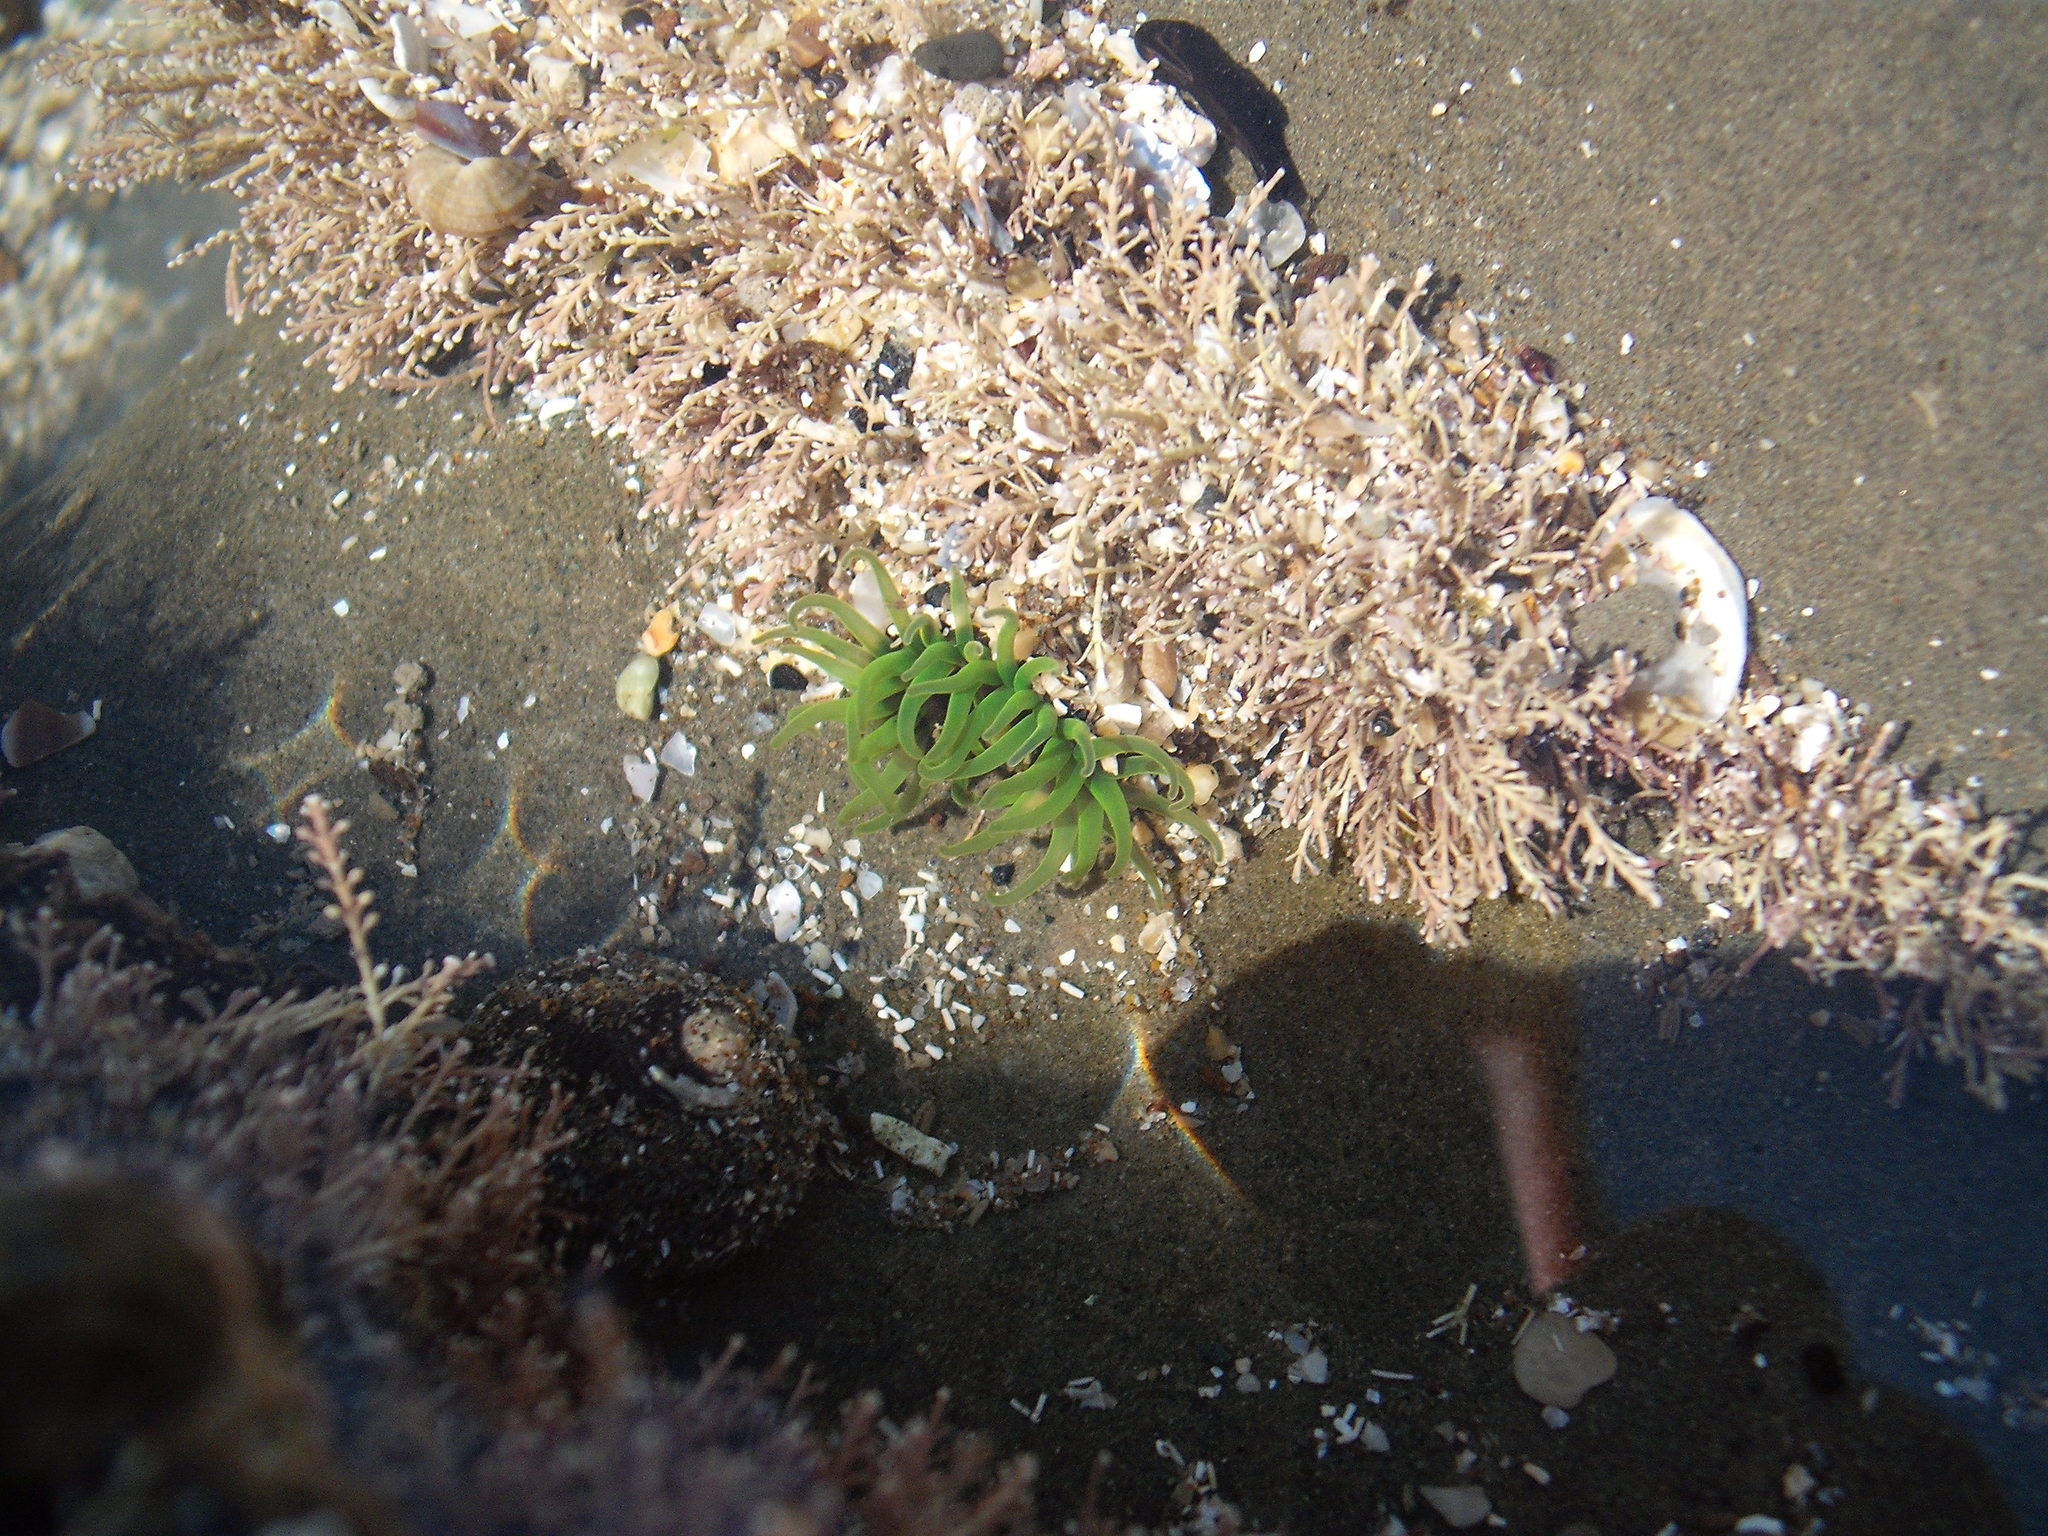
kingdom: Animalia
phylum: Cnidaria
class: Anthozoa
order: Actiniaria
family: Actiniidae
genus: Aulactinia
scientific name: Aulactinia veratra
